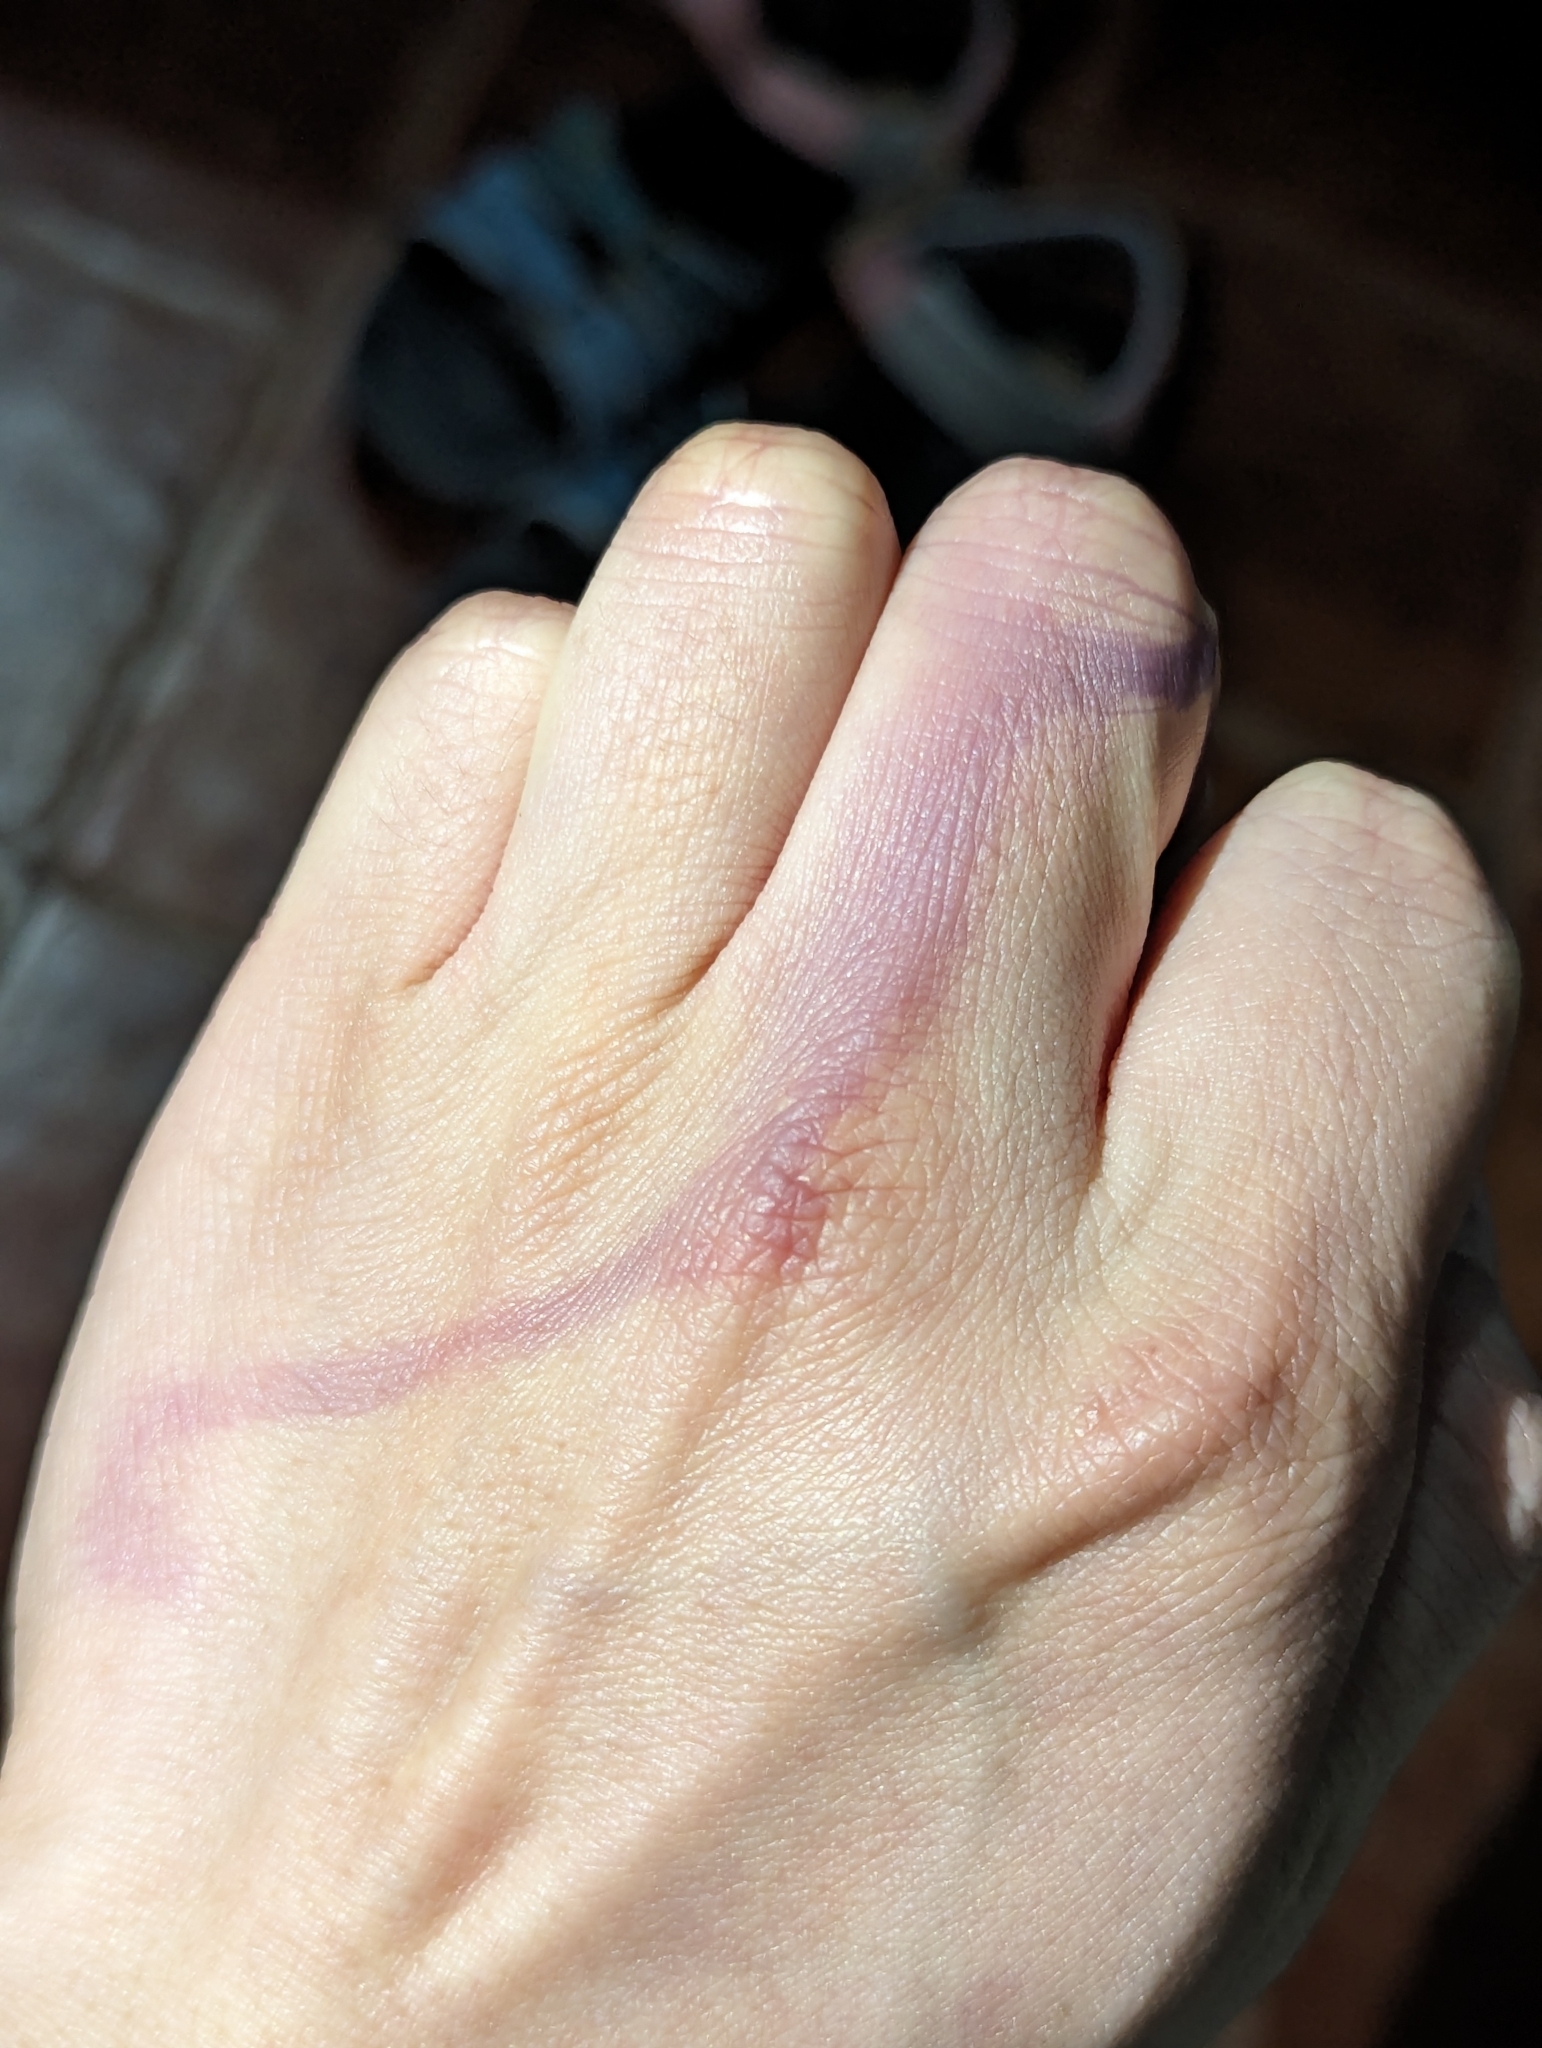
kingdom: Animalia
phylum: Mollusca
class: Gastropoda
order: Neogastropoda
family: Muricidae
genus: Plicopurpura
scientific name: Plicopurpura columellaris
